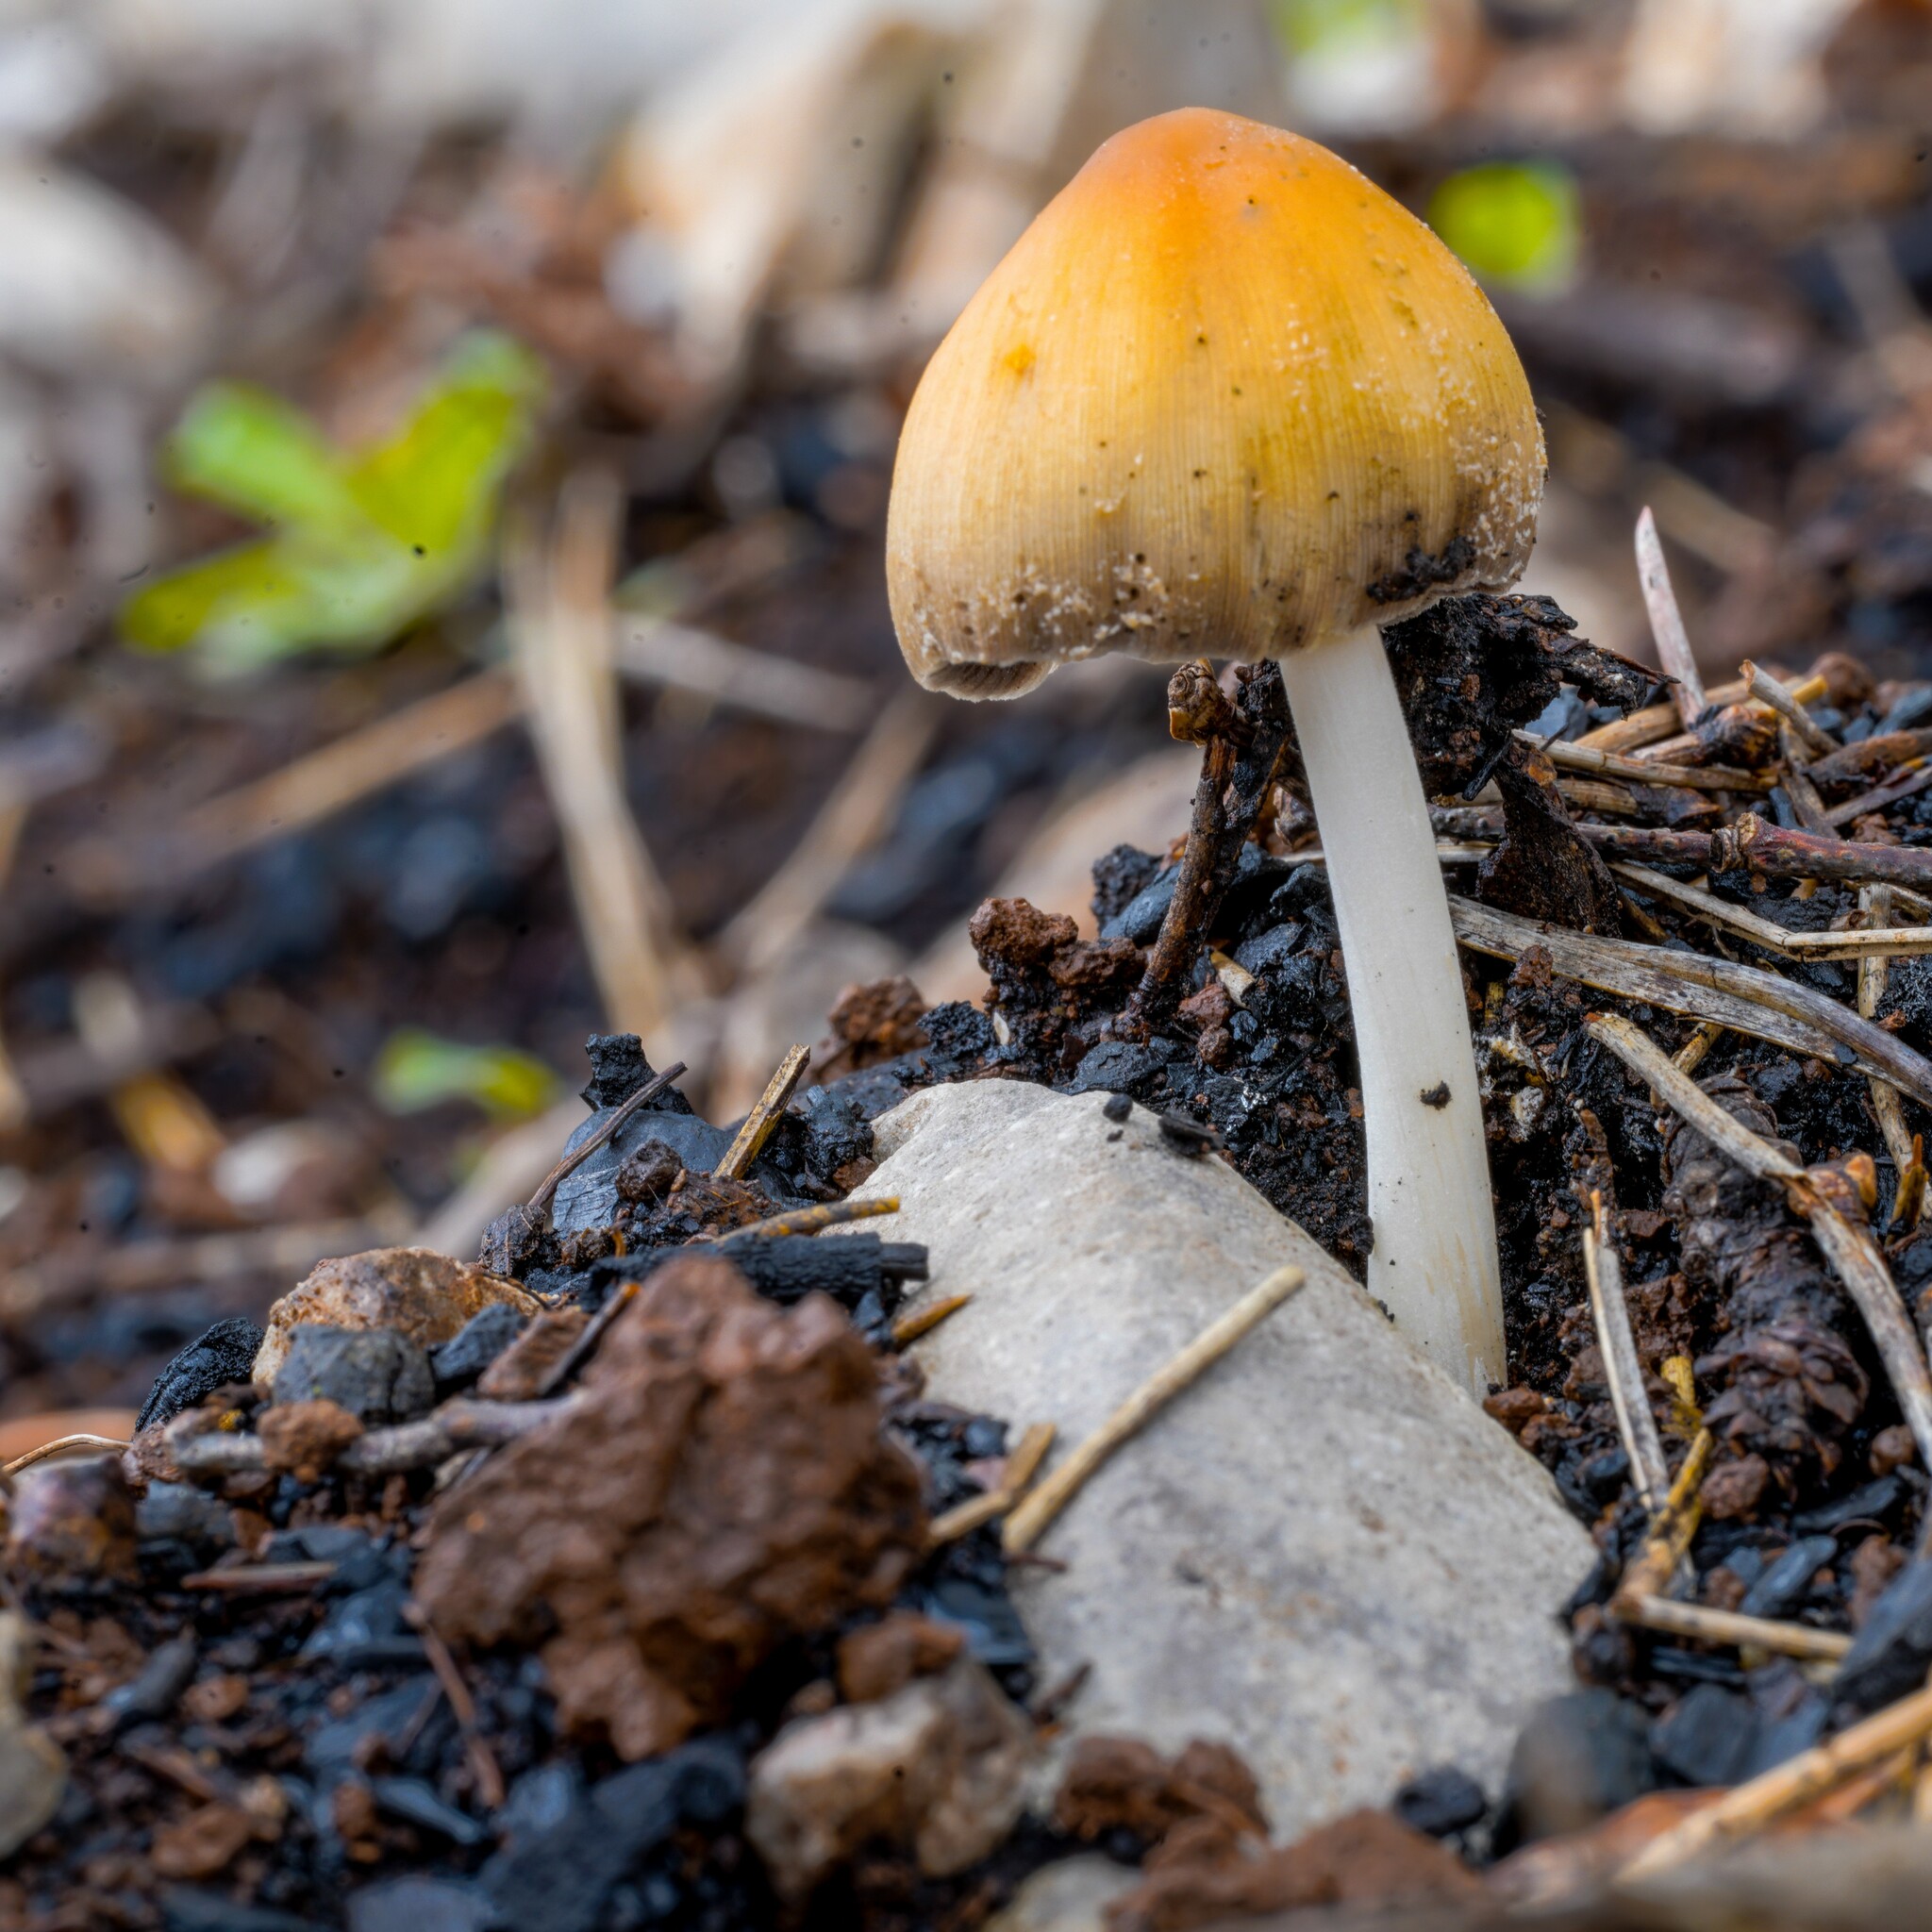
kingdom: Fungi
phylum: Basidiomycota
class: Agaricomycetes
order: Agaricales
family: Psathyrellaceae
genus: Coprinellus
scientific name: Coprinellus micaceus
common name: Glistening ink-cap
